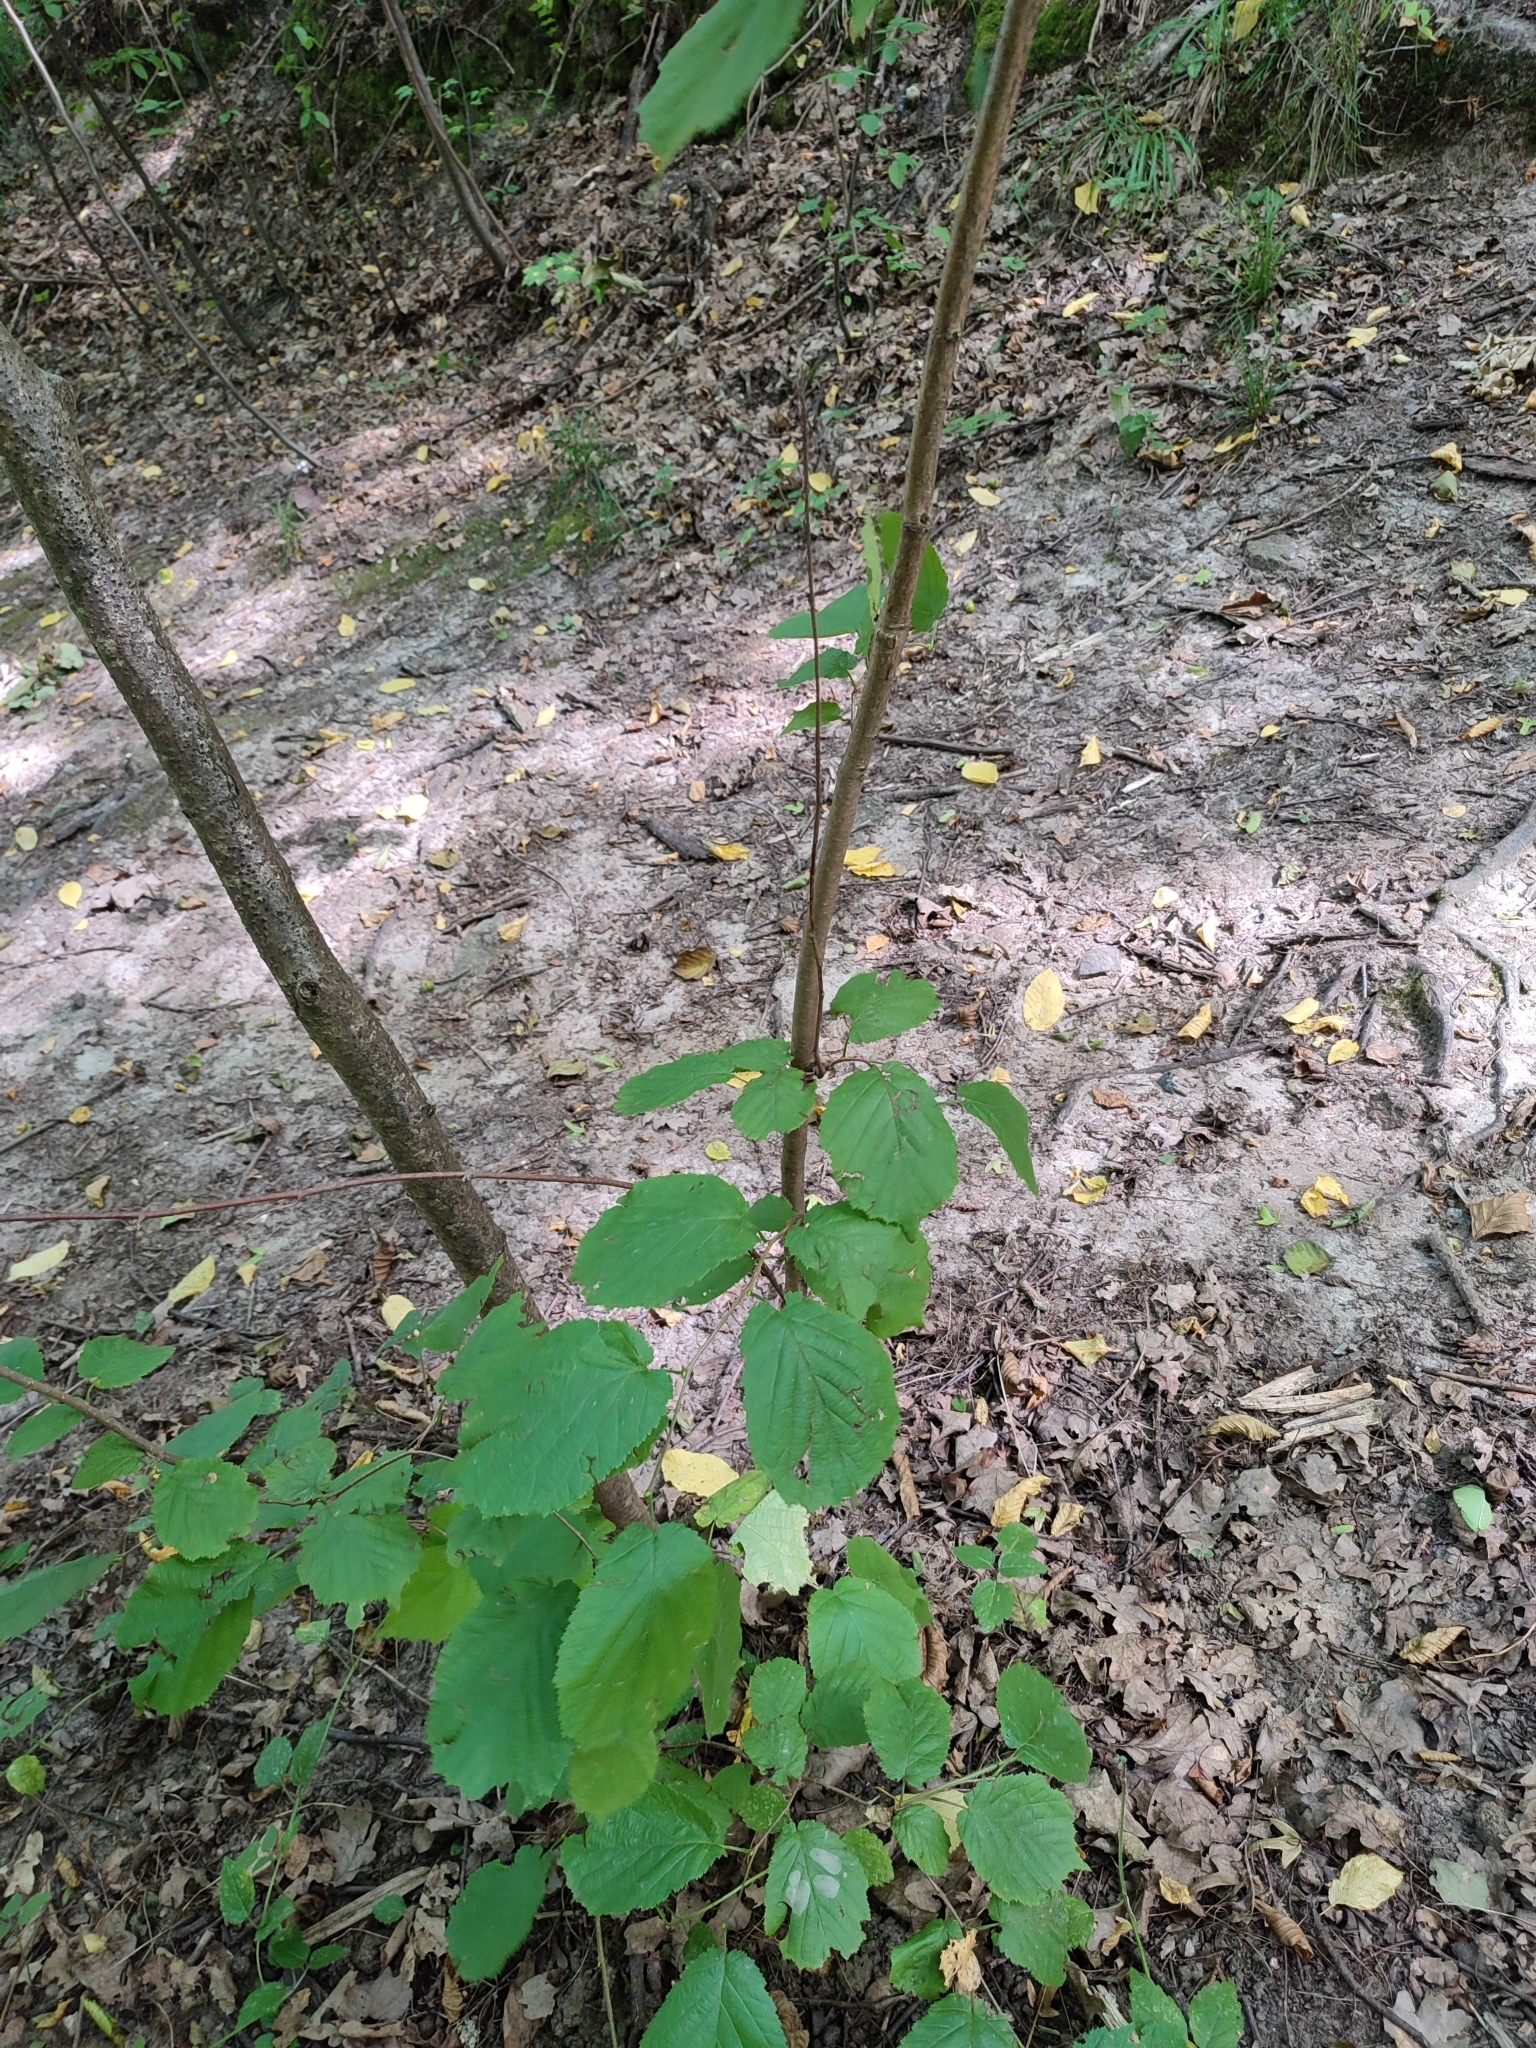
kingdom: Plantae
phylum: Tracheophyta
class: Magnoliopsida
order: Fagales
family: Betulaceae
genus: Corylus
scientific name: Corylus avellana
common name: European hazel
